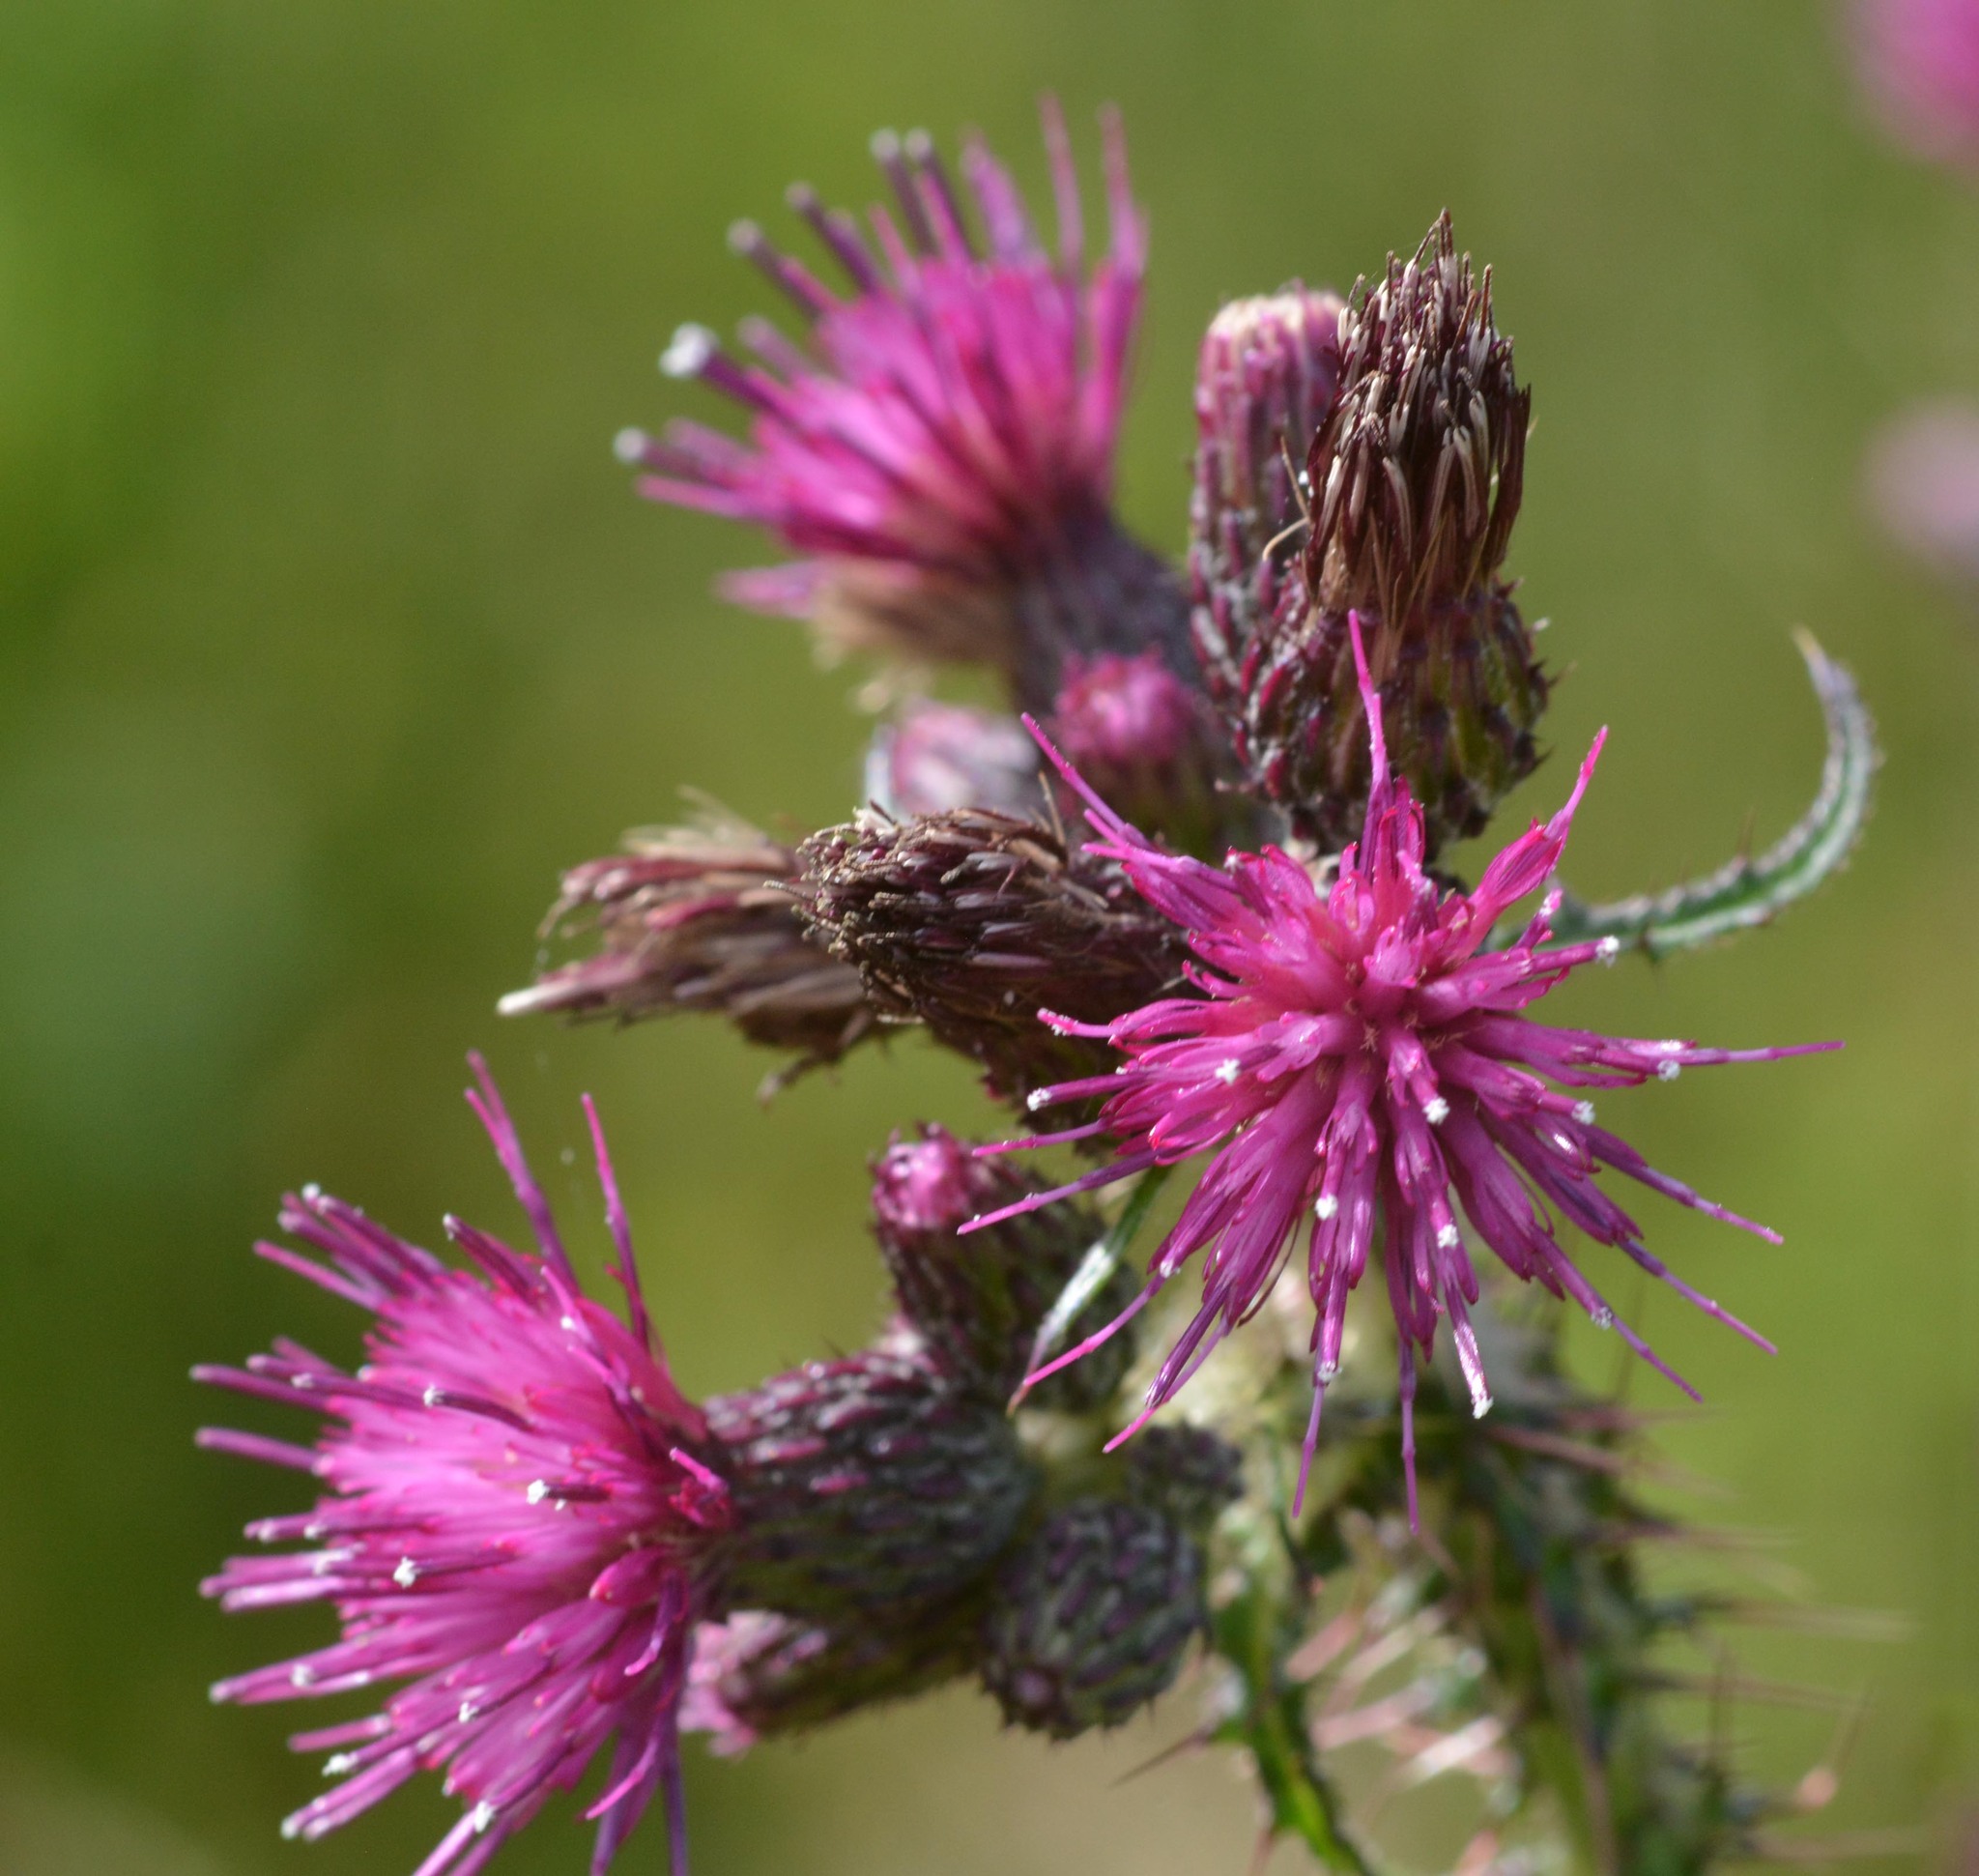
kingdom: Plantae
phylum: Tracheophyta
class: Magnoliopsida
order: Asterales
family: Asteraceae
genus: Cirsium
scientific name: Cirsium palustre
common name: Marsh thistle
